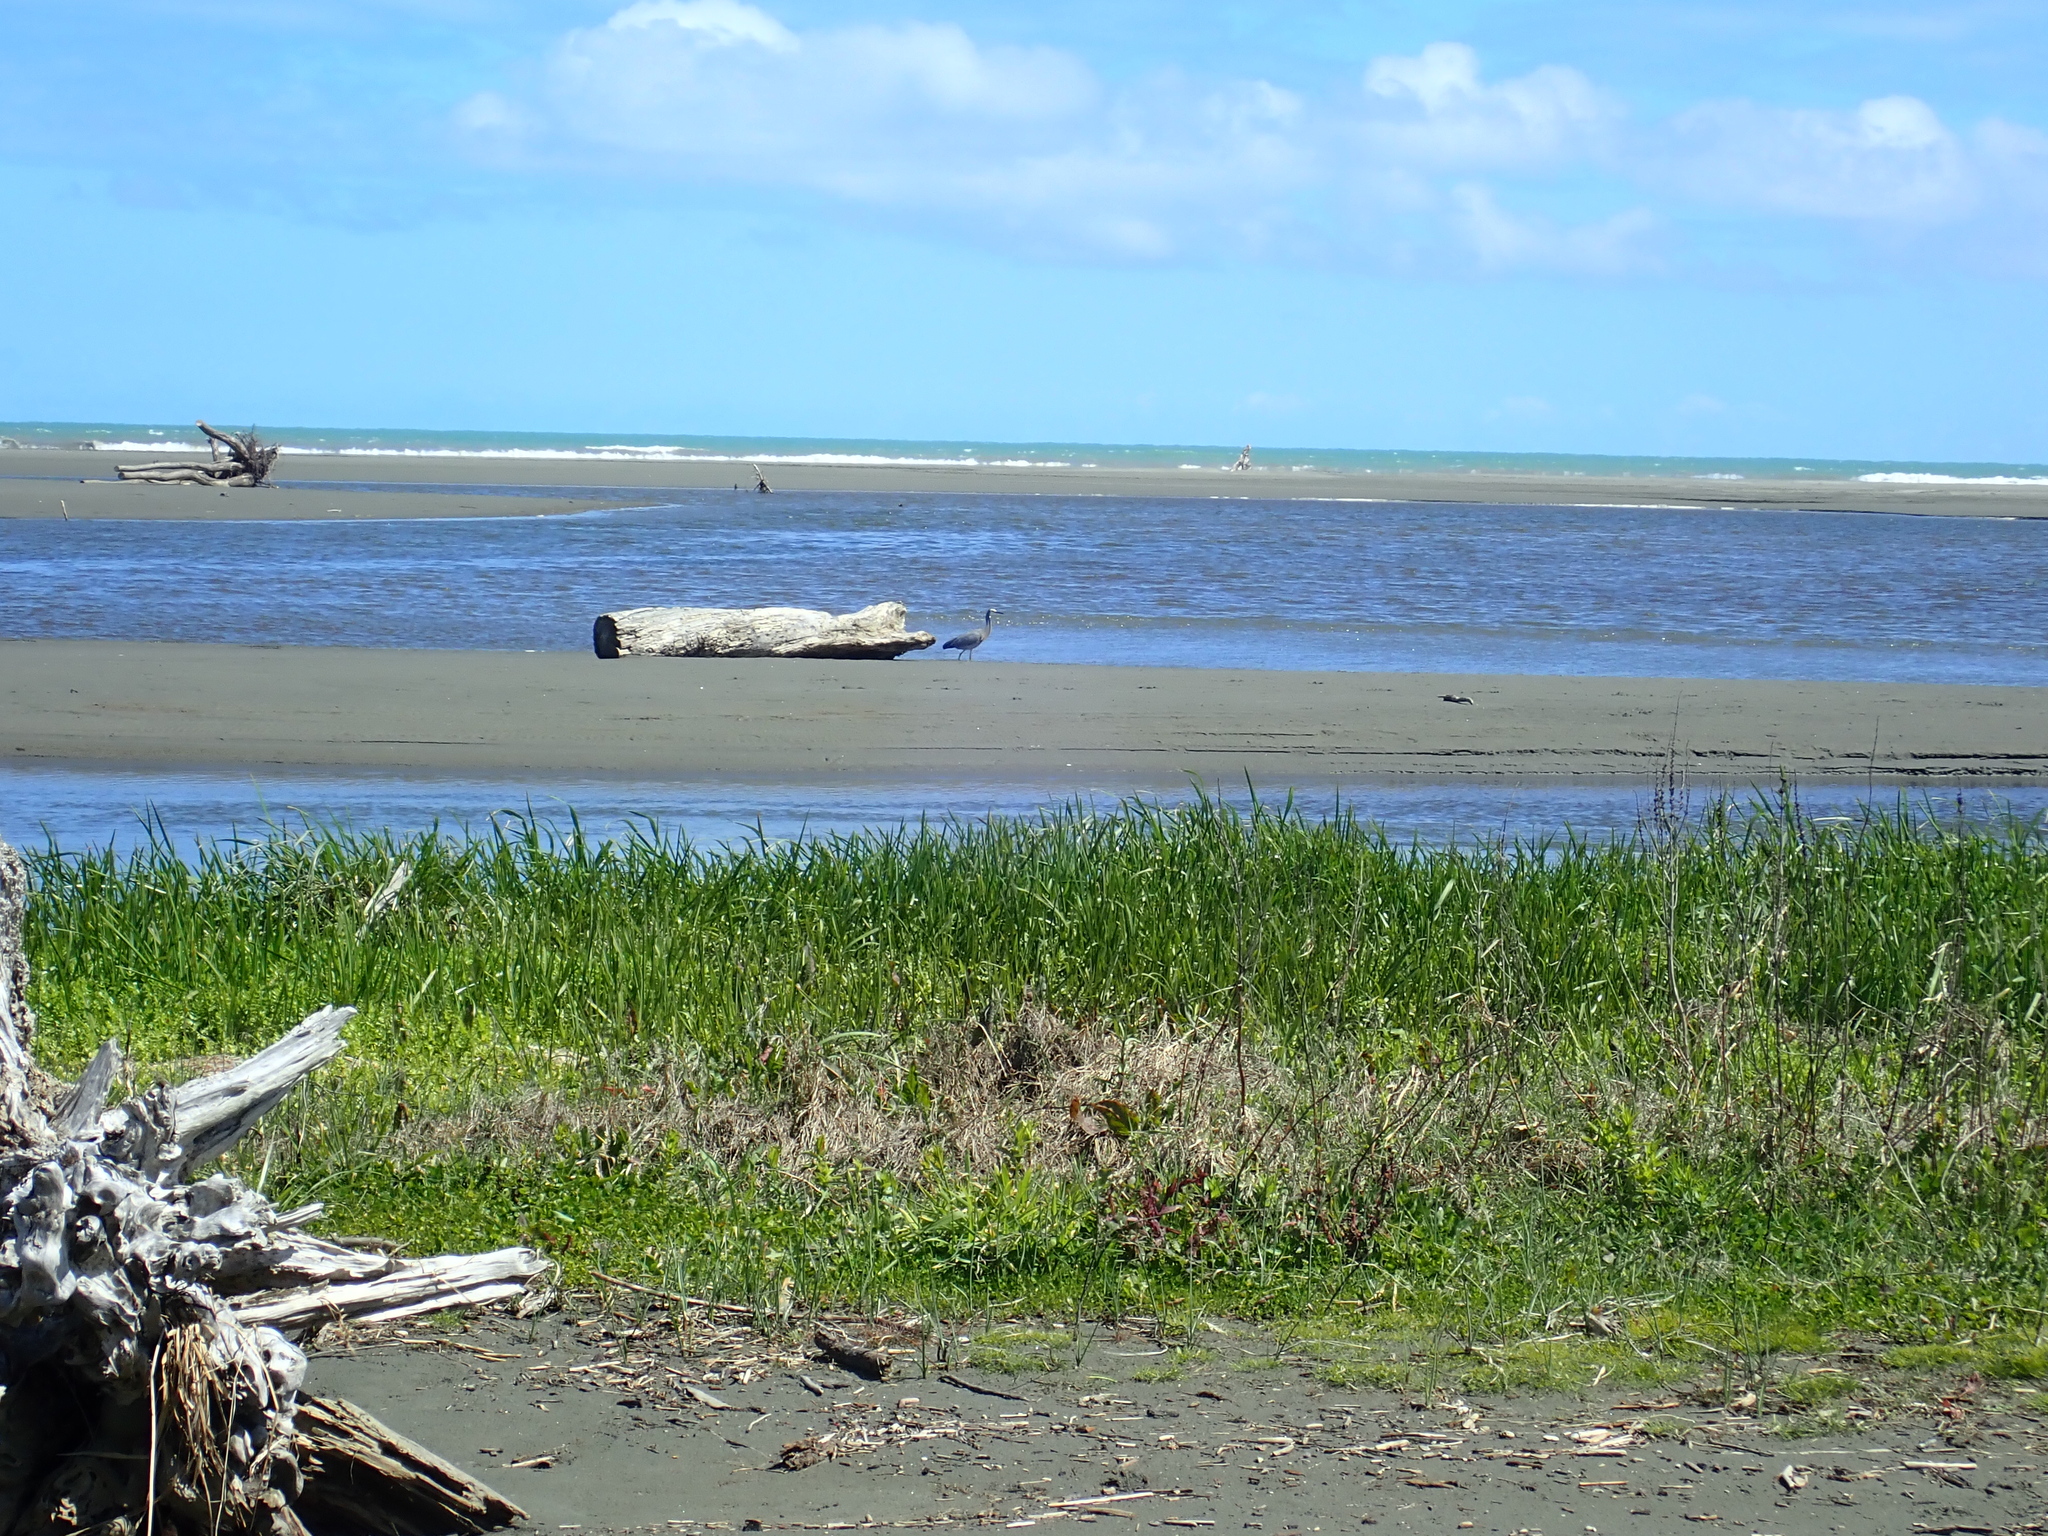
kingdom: Animalia
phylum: Chordata
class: Aves
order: Pelecaniformes
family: Ardeidae
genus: Egretta
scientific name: Egretta novaehollandiae
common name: White-faced heron
